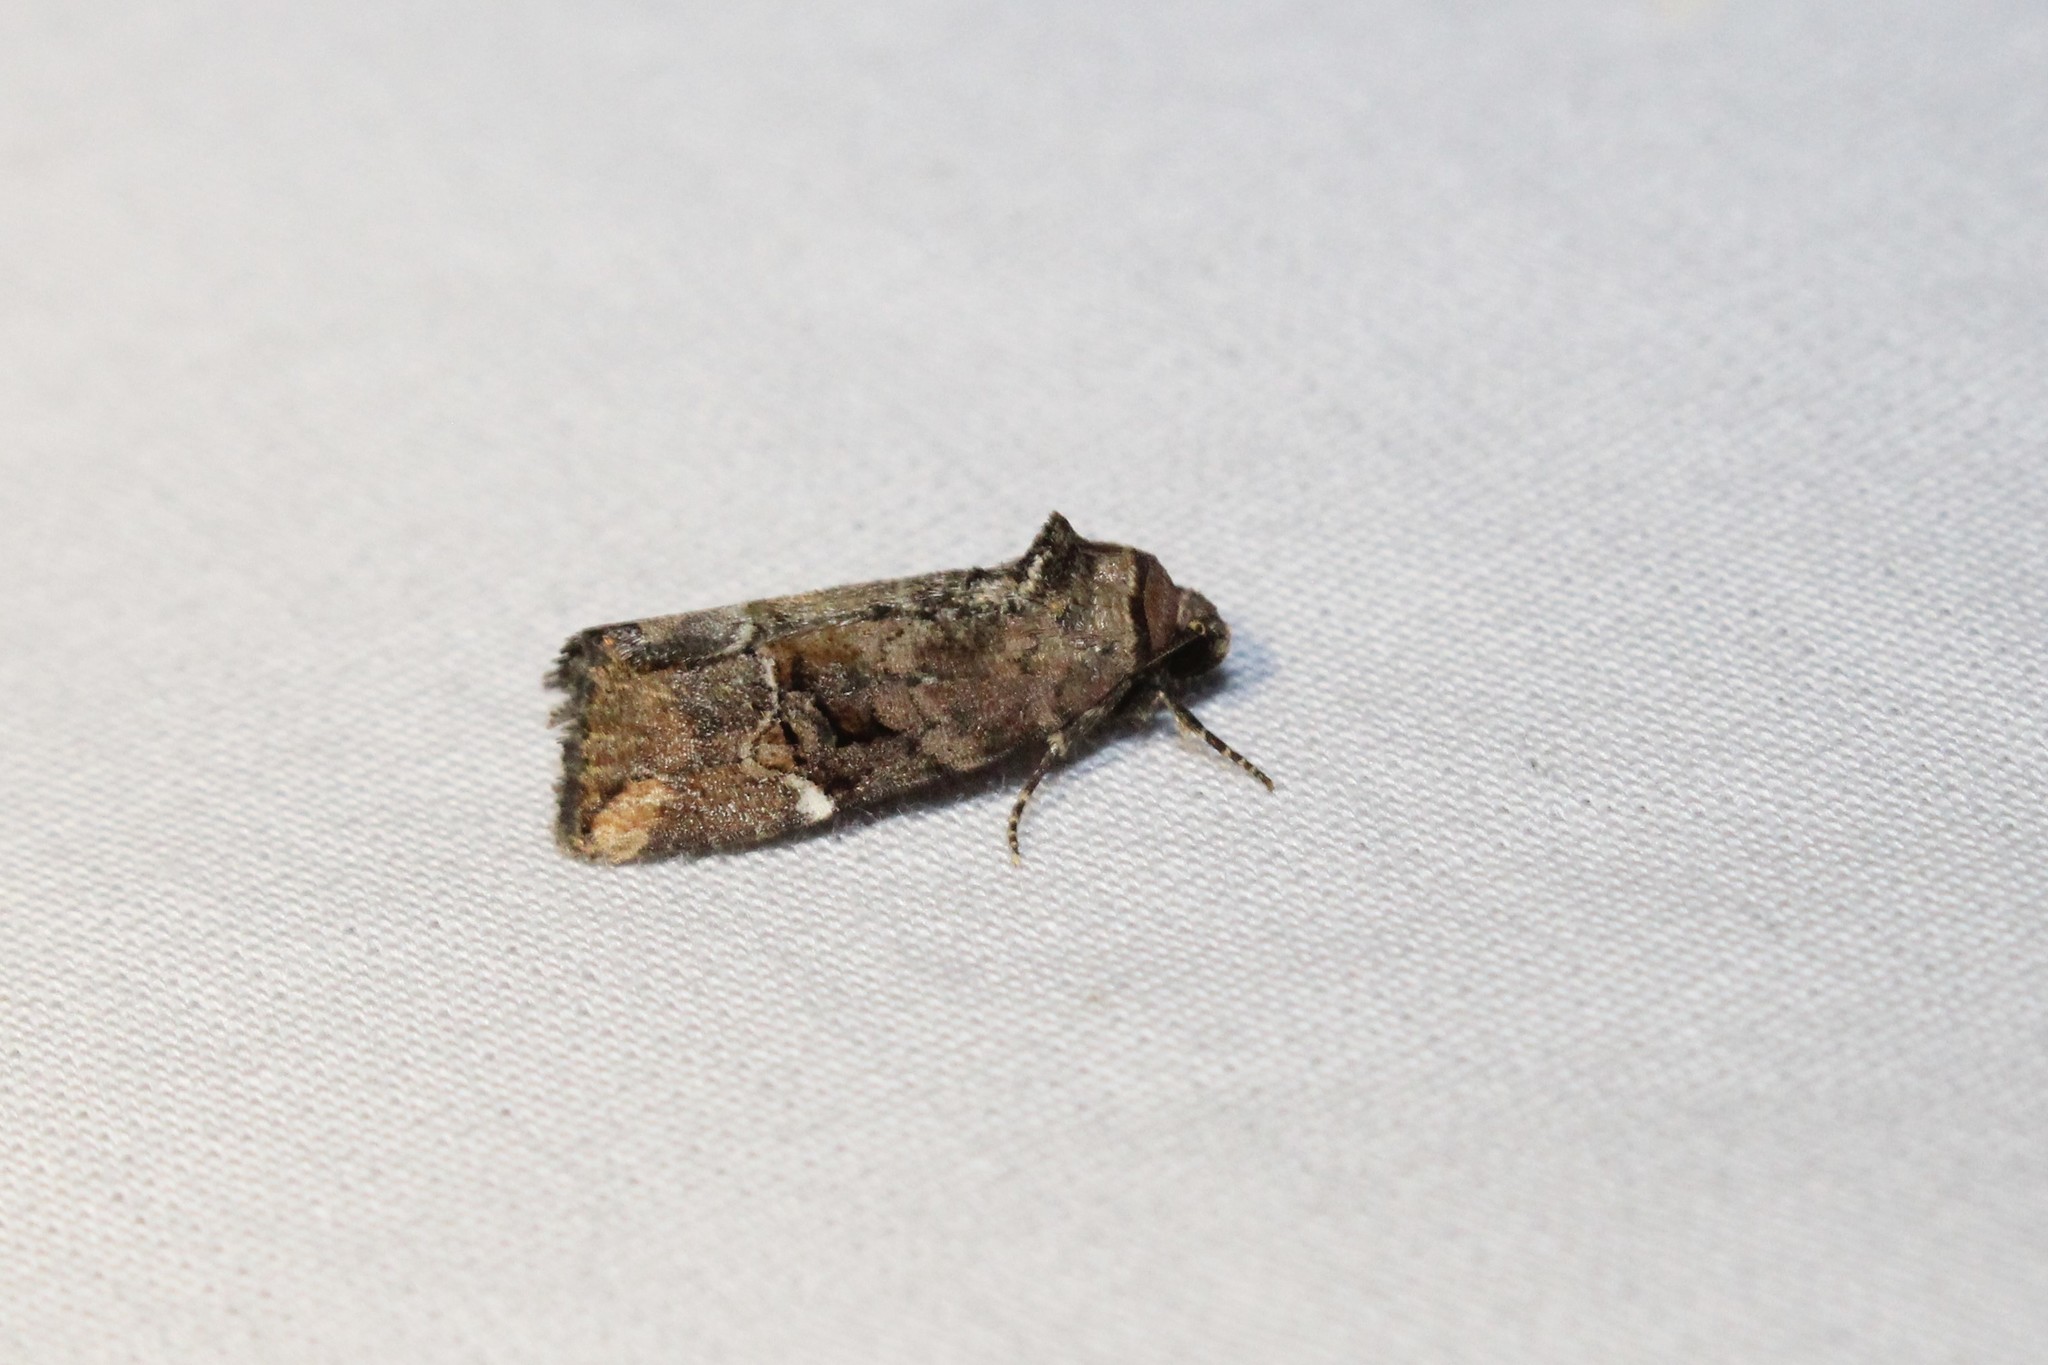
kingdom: Animalia
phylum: Arthropoda
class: Insecta
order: Lepidoptera
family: Noctuidae
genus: Elaphria
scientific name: Elaphria versicolor
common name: Fir harlequin
